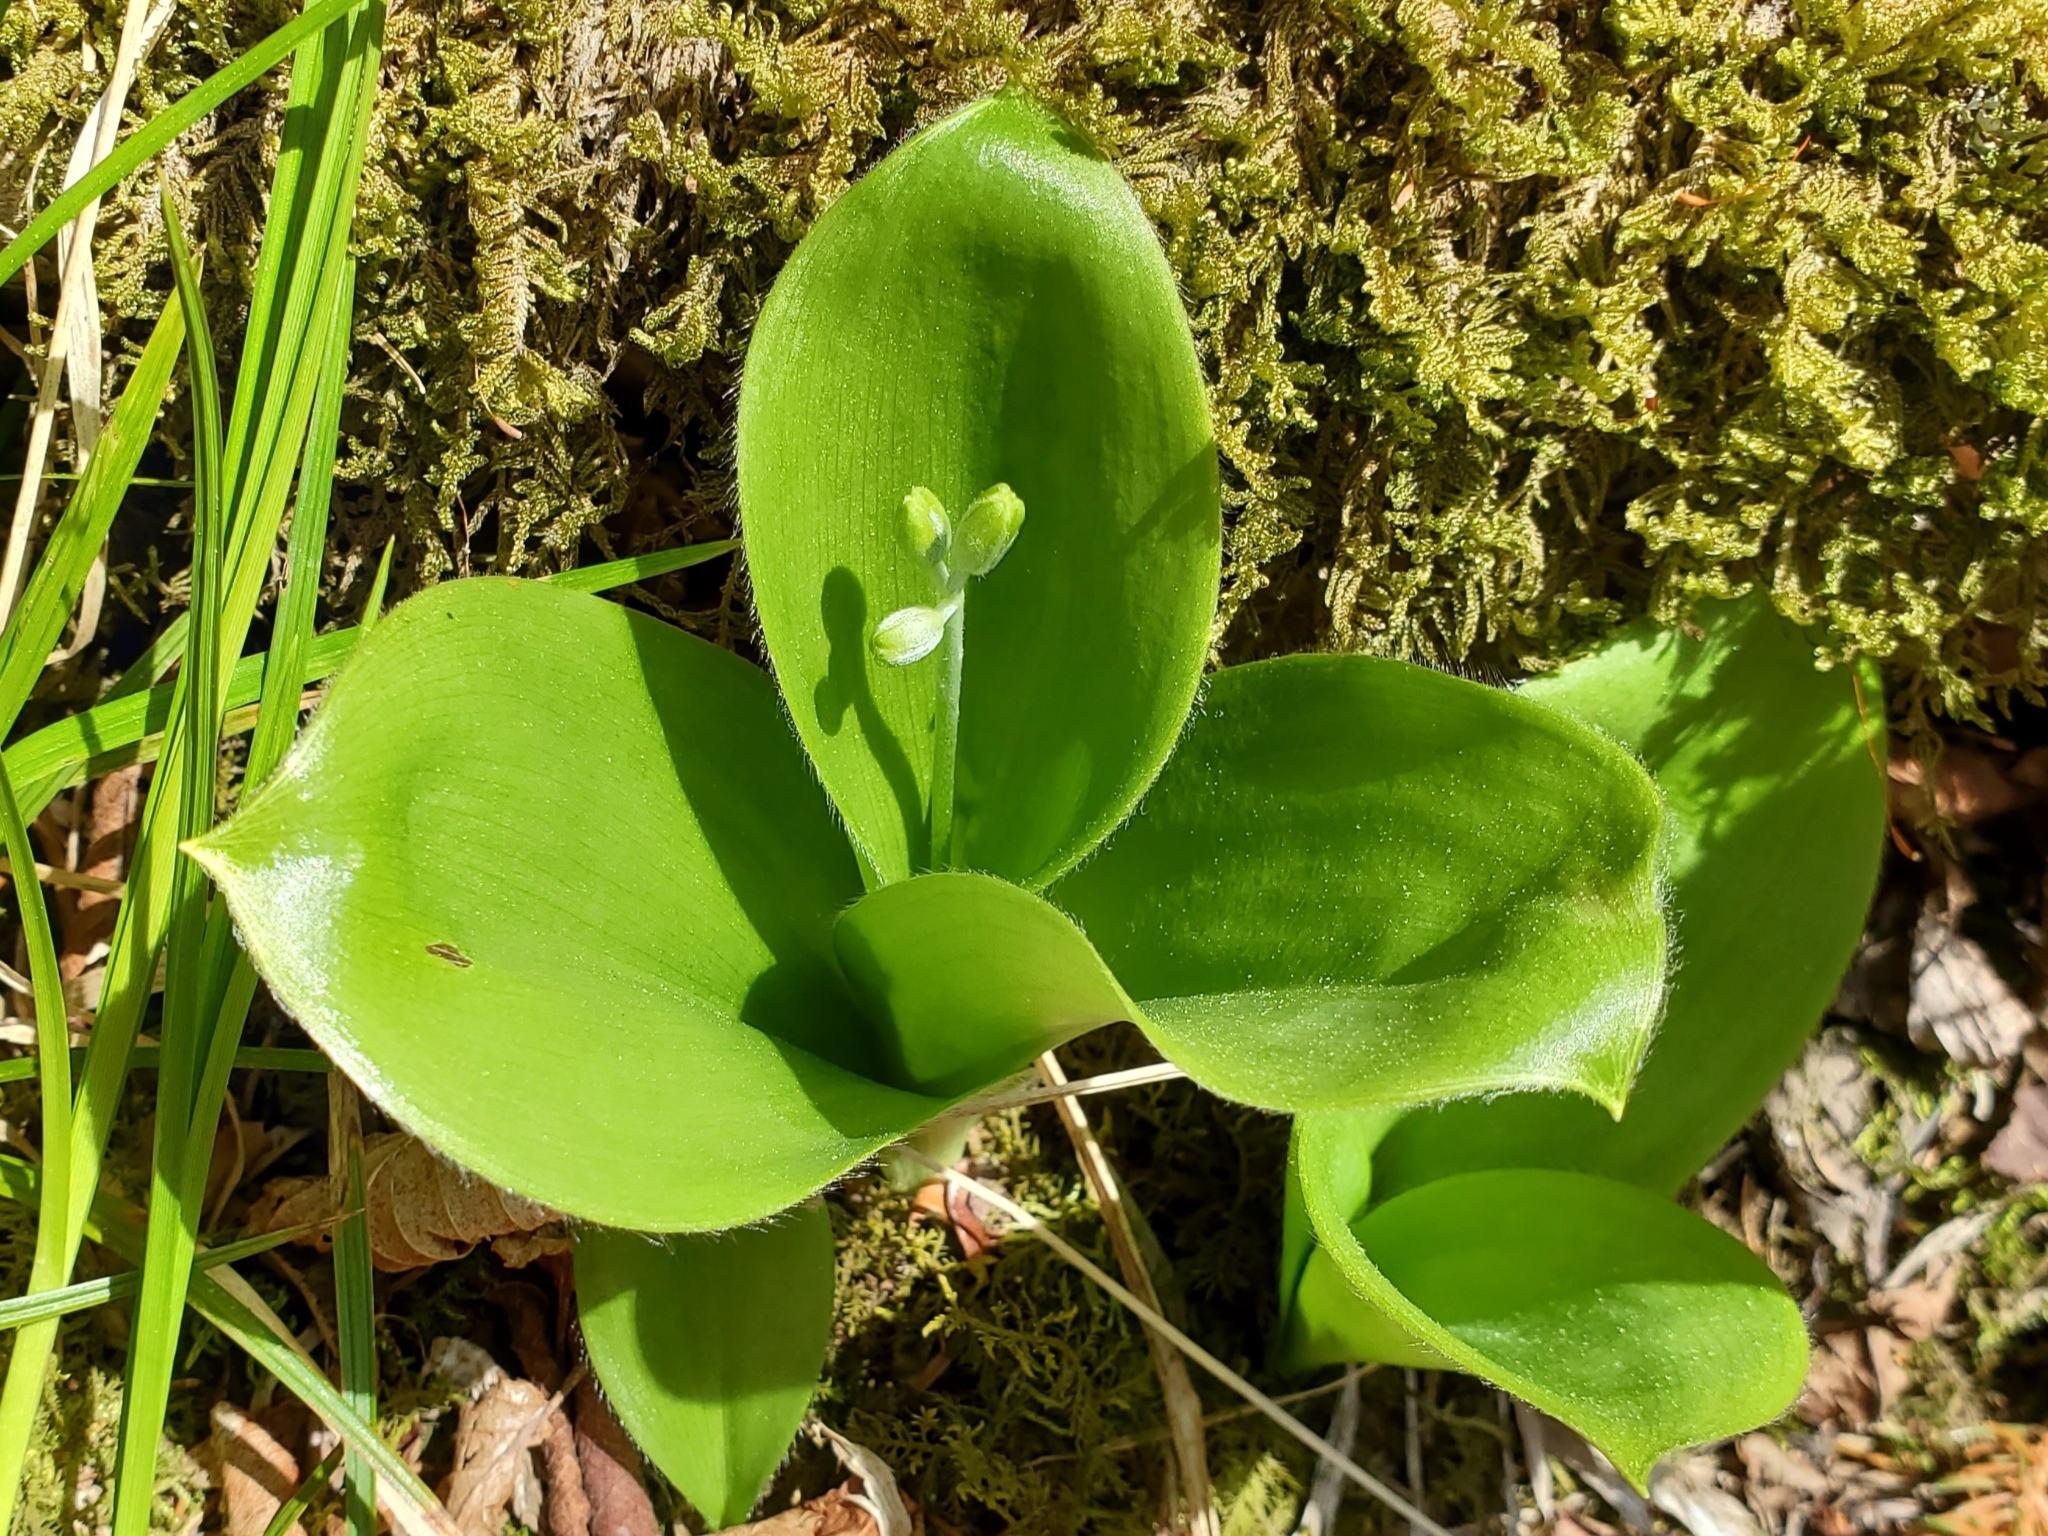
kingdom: Plantae
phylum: Tracheophyta
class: Liliopsida
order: Liliales
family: Liliaceae
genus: Clintonia
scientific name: Clintonia borealis
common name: Yellow clintonia
